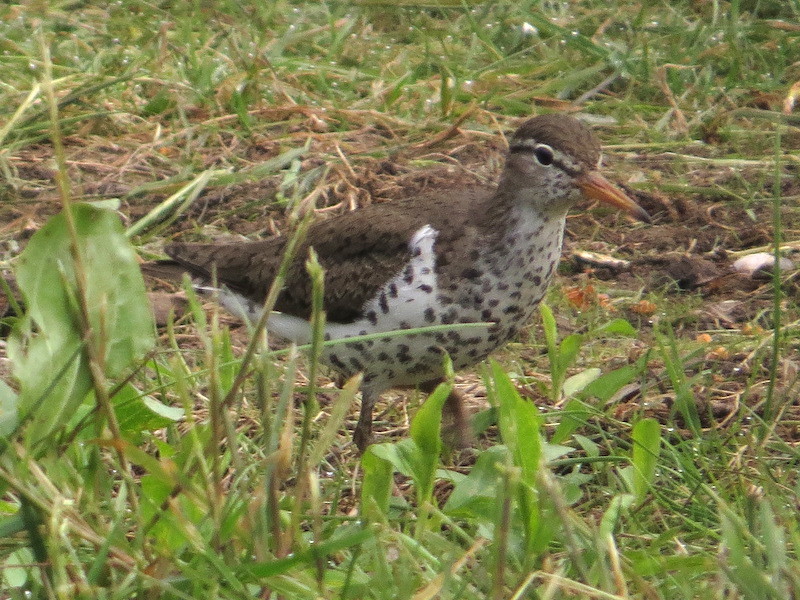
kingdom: Animalia
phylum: Chordata
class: Aves
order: Charadriiformes
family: Scolopacidae
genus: Actitis
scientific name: Actitis macularius
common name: Spotted sandpiper
